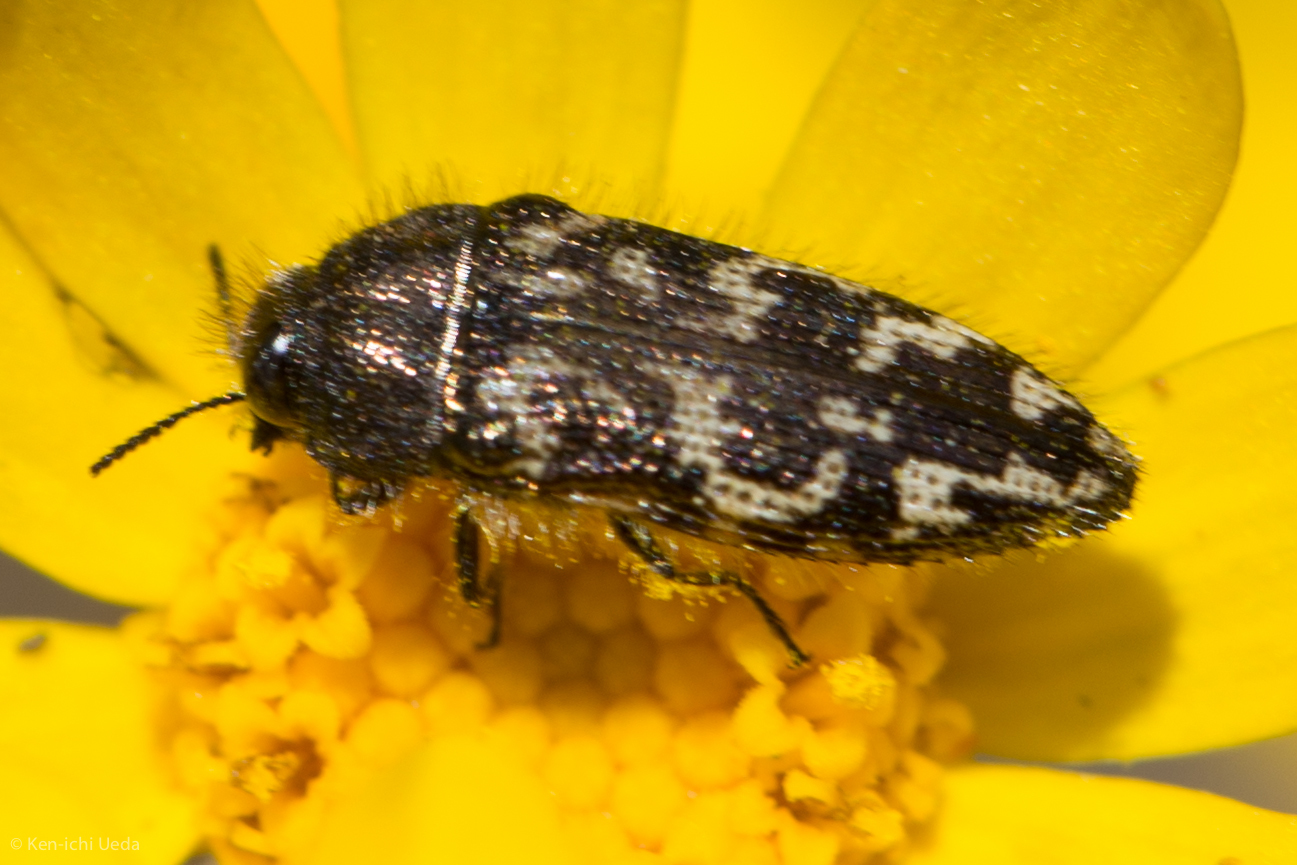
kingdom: Animalia
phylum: Arthropoda
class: Insecta
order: Coleoptera
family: Buprestidae
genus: Acmaeodera
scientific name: Acmaeodera retifera
